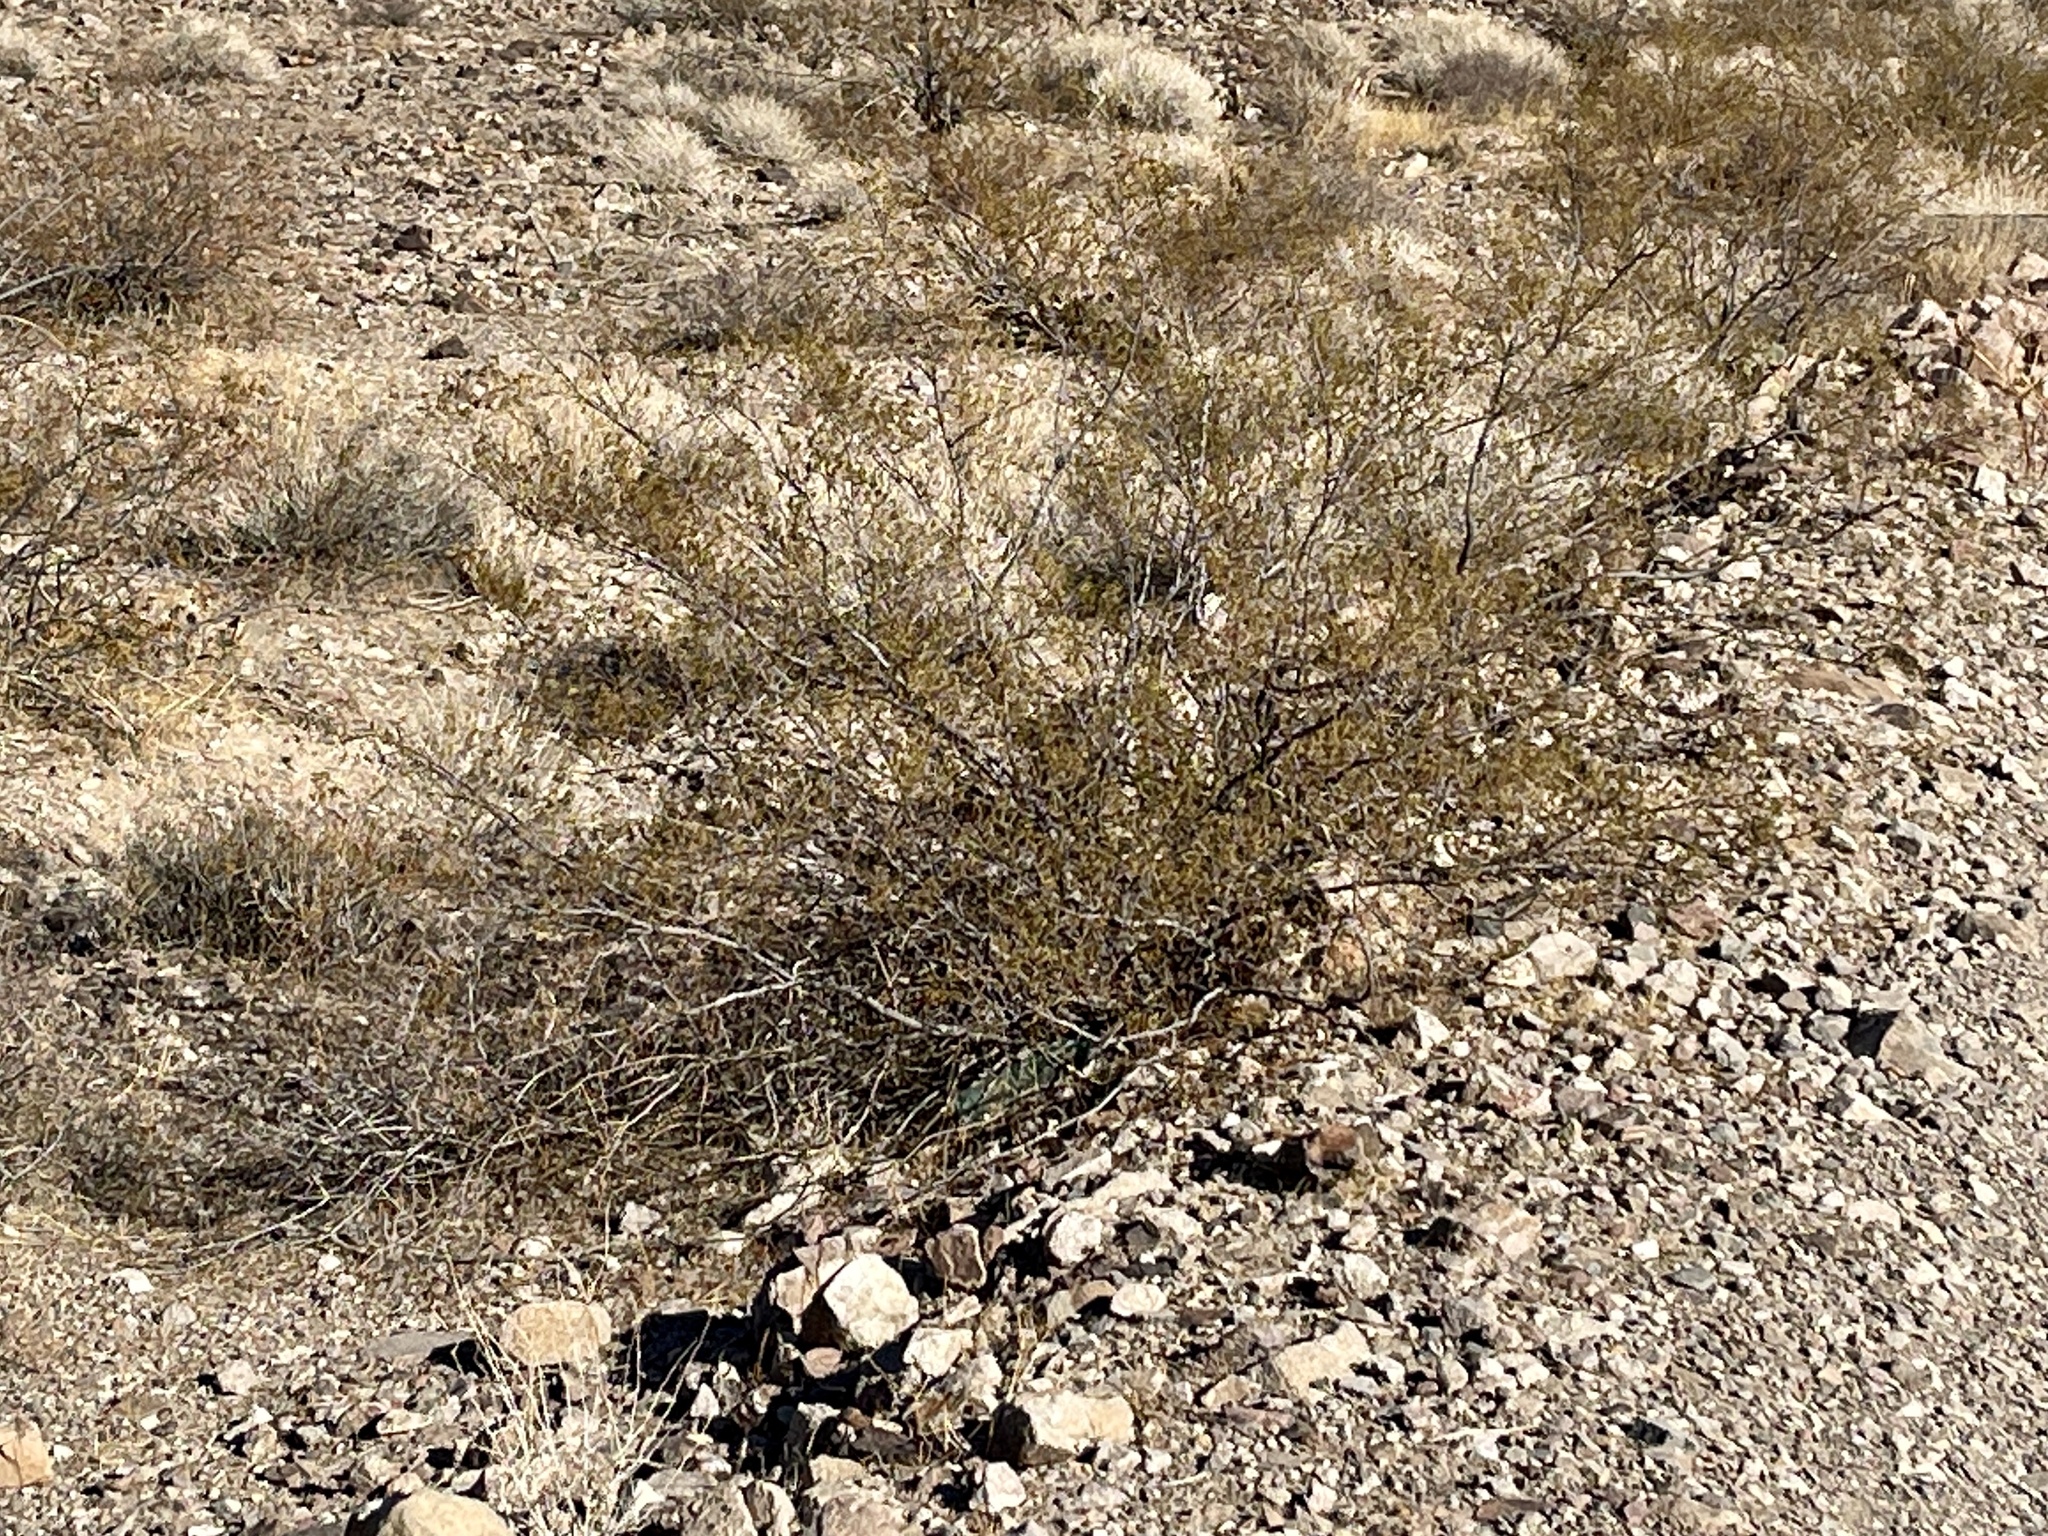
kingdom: Plantae
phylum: Tracheophyta
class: Magnoliopsida
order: Zygophyllales
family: Zygophyllaceae
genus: Larrea
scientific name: Larrea tridentata
